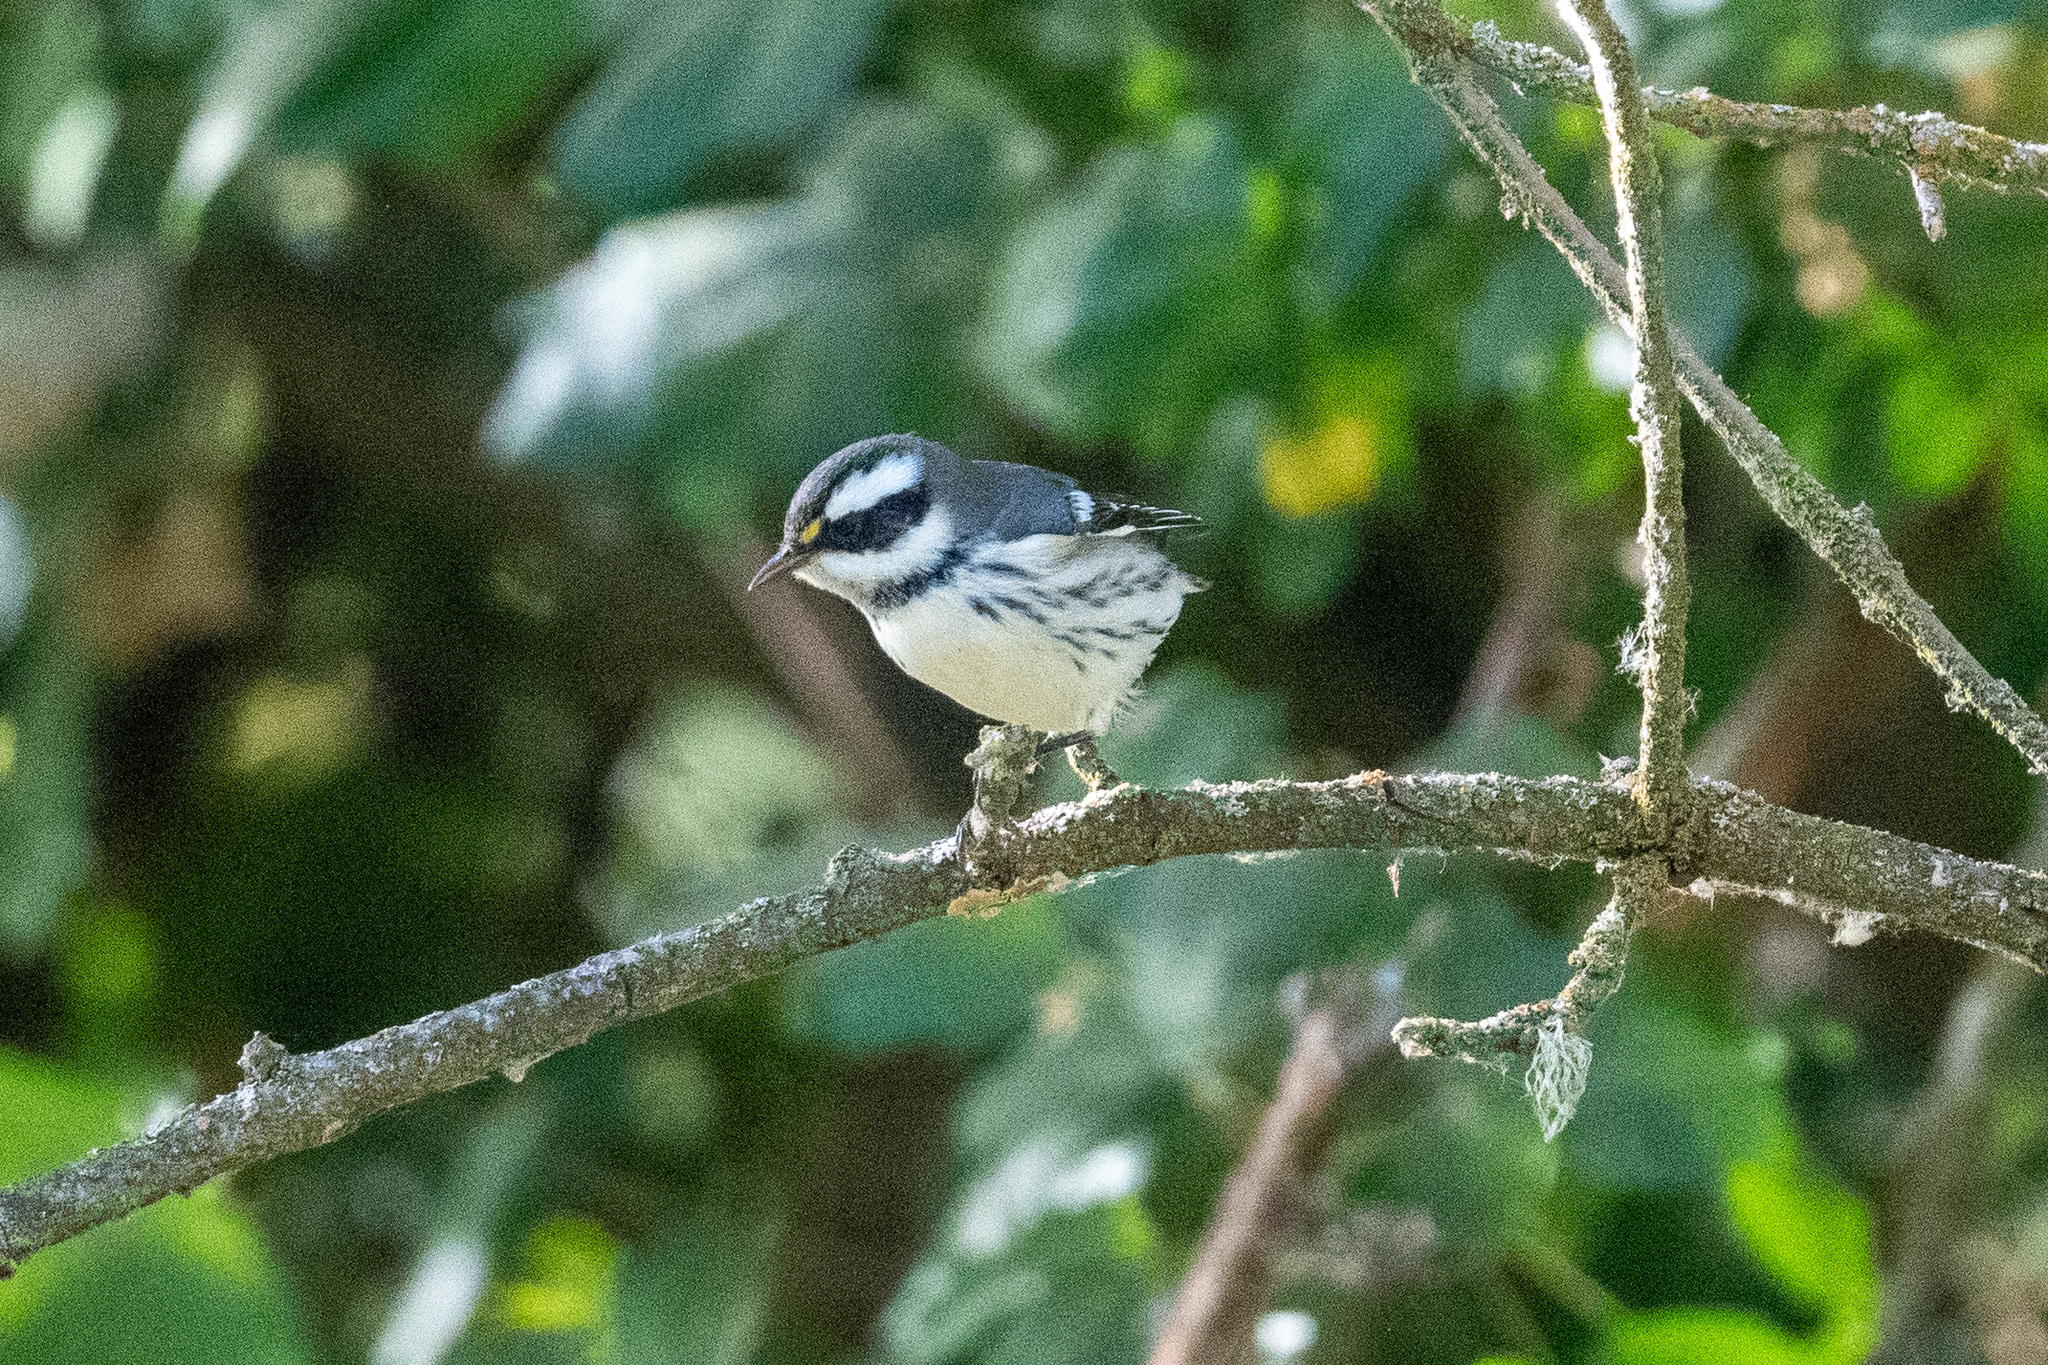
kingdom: Animalia
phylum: Chordata
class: Aves
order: Passeriformes
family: Parulidae
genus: Setophaga
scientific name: Setophaga nigrescens
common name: Black-throated gray warbler
